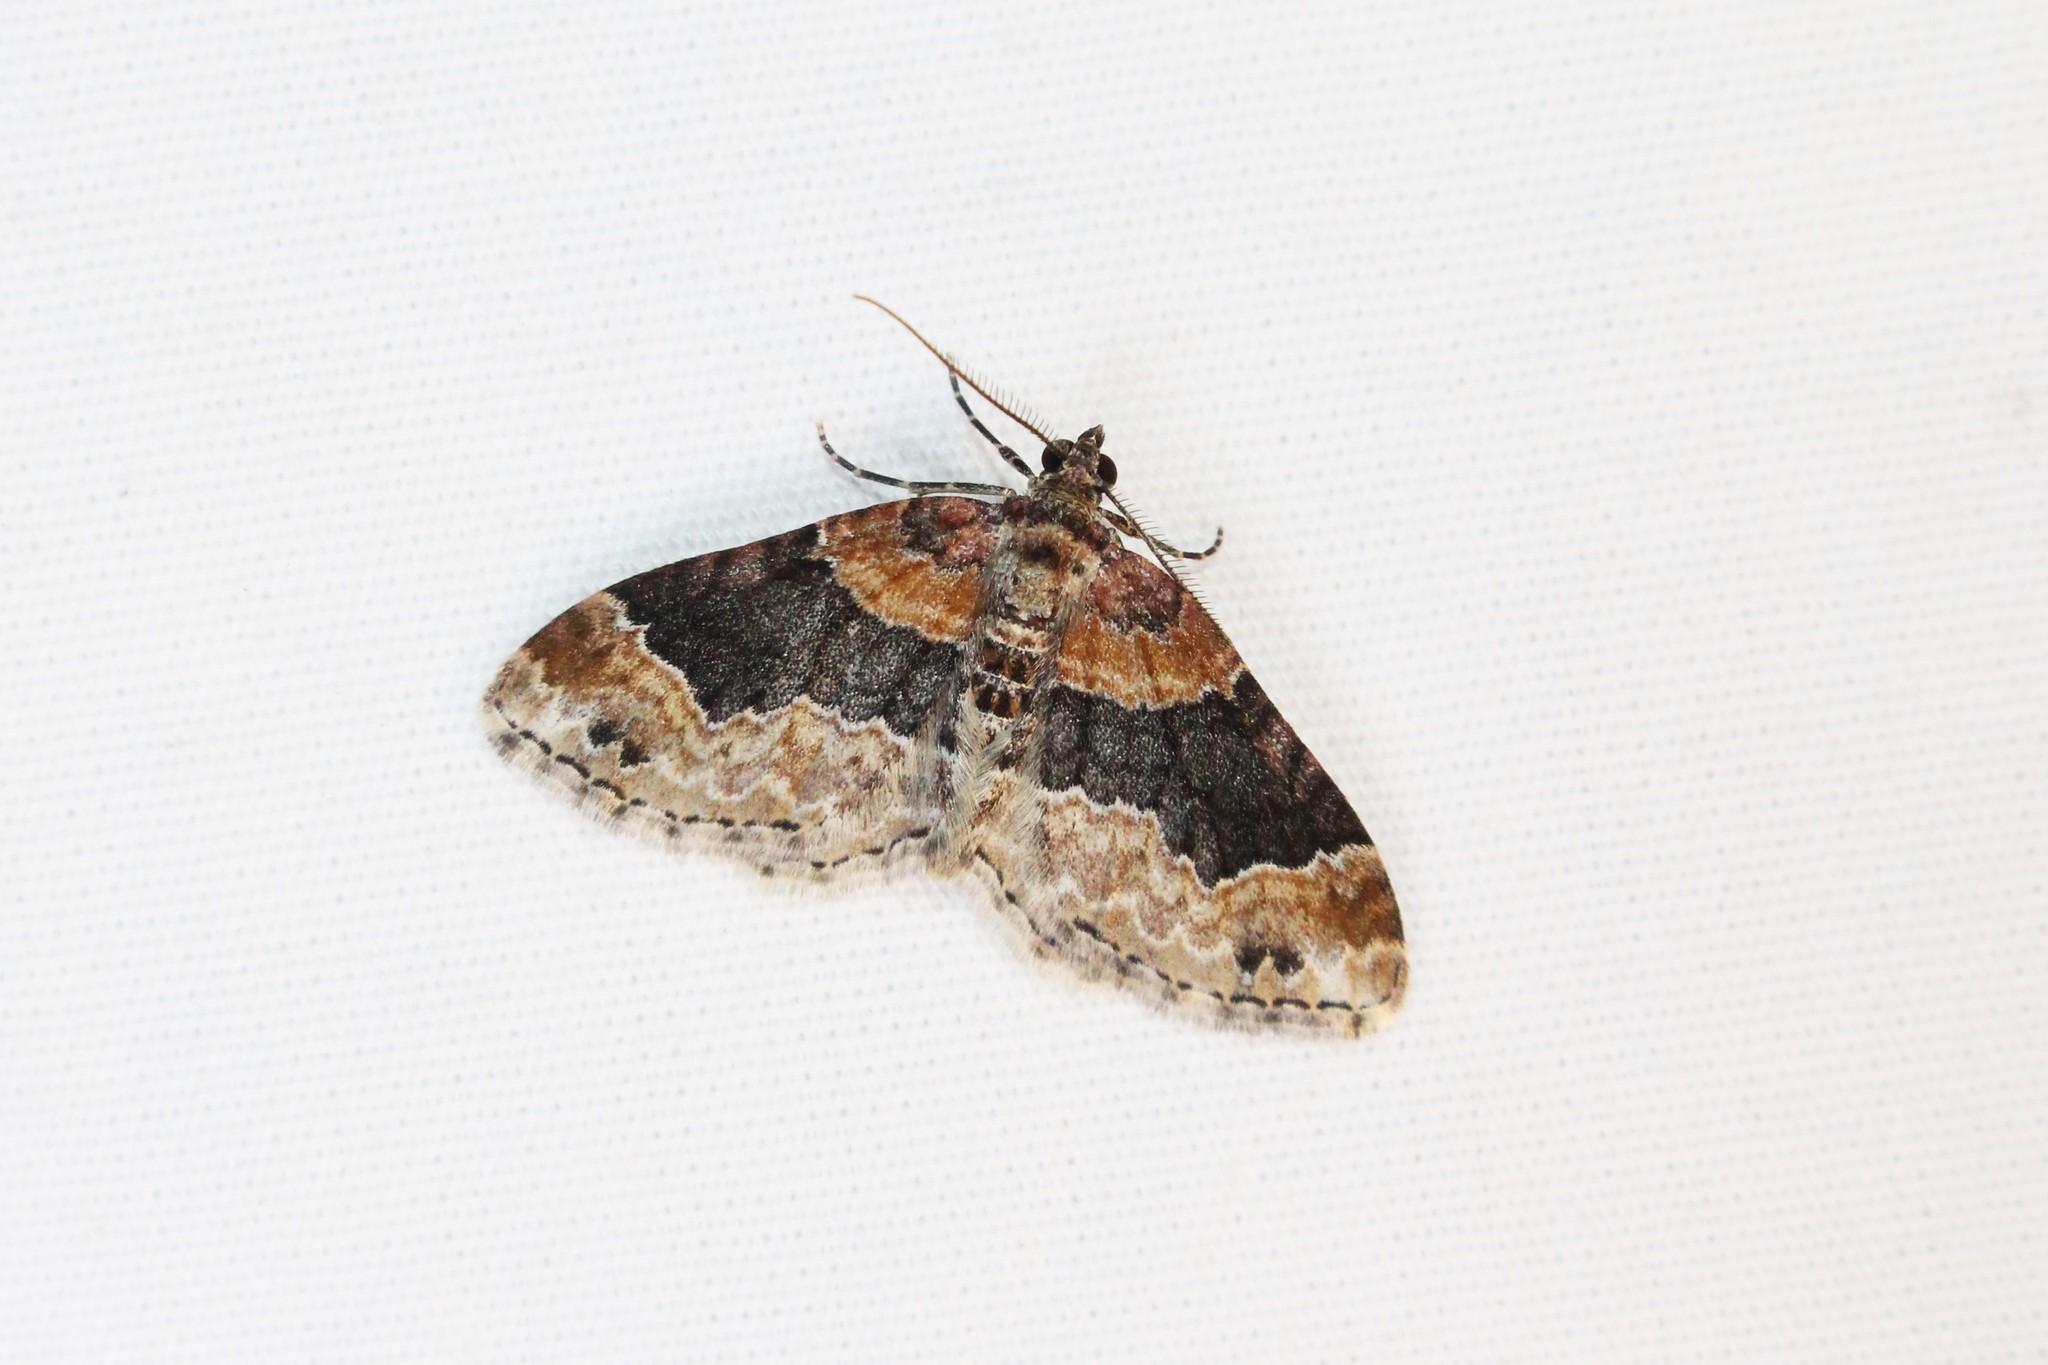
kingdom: Animalia
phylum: Arthropoda
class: Insecta
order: Lepidoptera
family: Geometridae
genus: Xanthorhoe
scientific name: Xanthorhoe ferrugata
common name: Dark-barred twin-spot carpet
